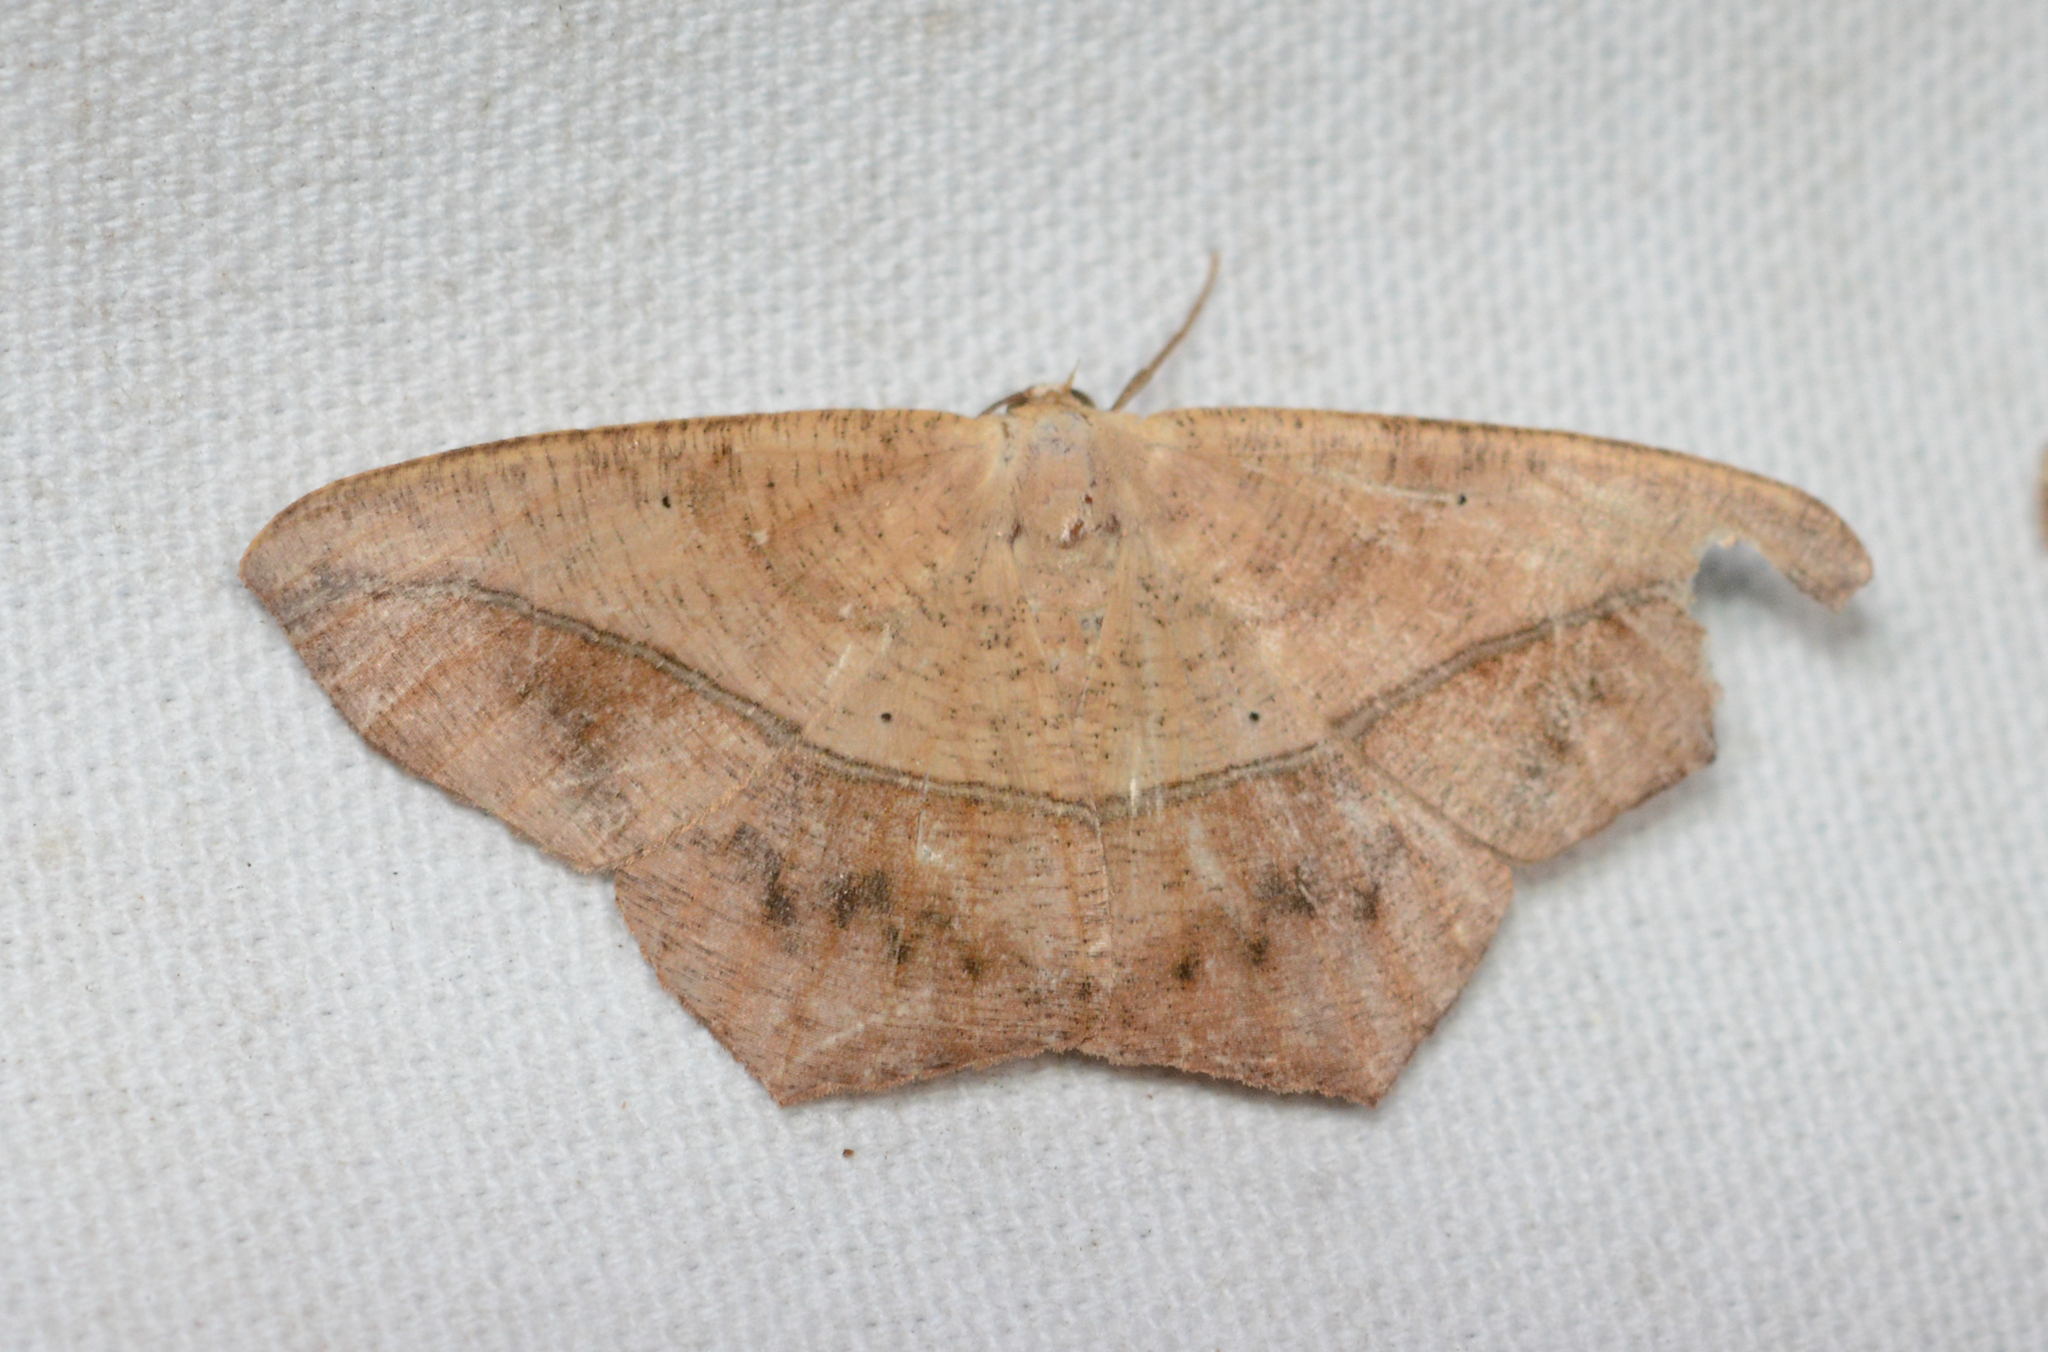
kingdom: Animalia
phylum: Arthropoda
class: Insecta
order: Lepidoptera
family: Geometridae
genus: Prochoerodes
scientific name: Prochoerodes lineola
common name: Large maple spanworm
